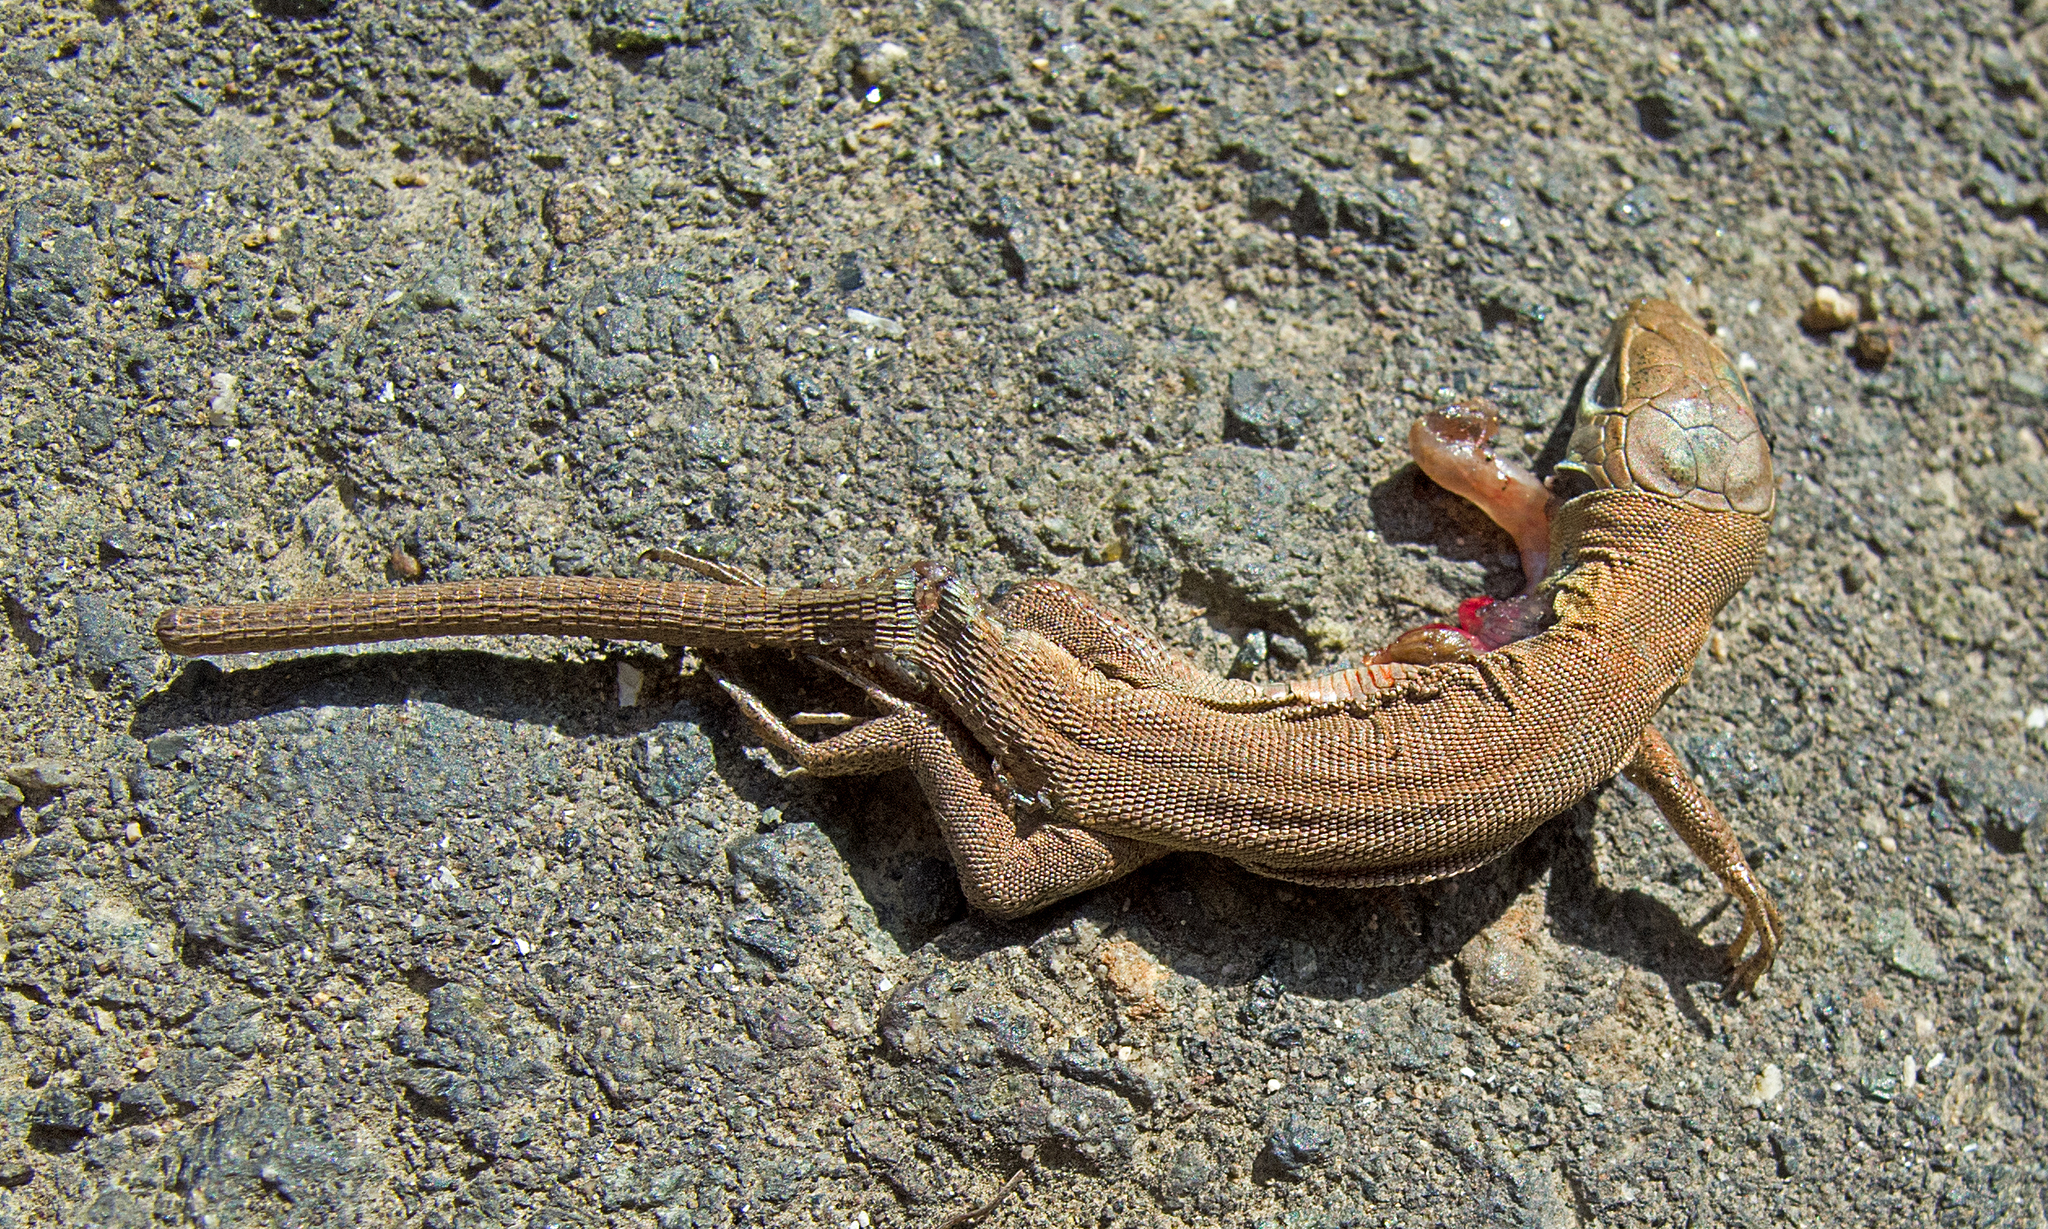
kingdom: Animalia
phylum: Chordata
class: Squamata
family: Lacertidae
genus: Lacerta
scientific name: Lacerta viridis
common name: European green lizard
